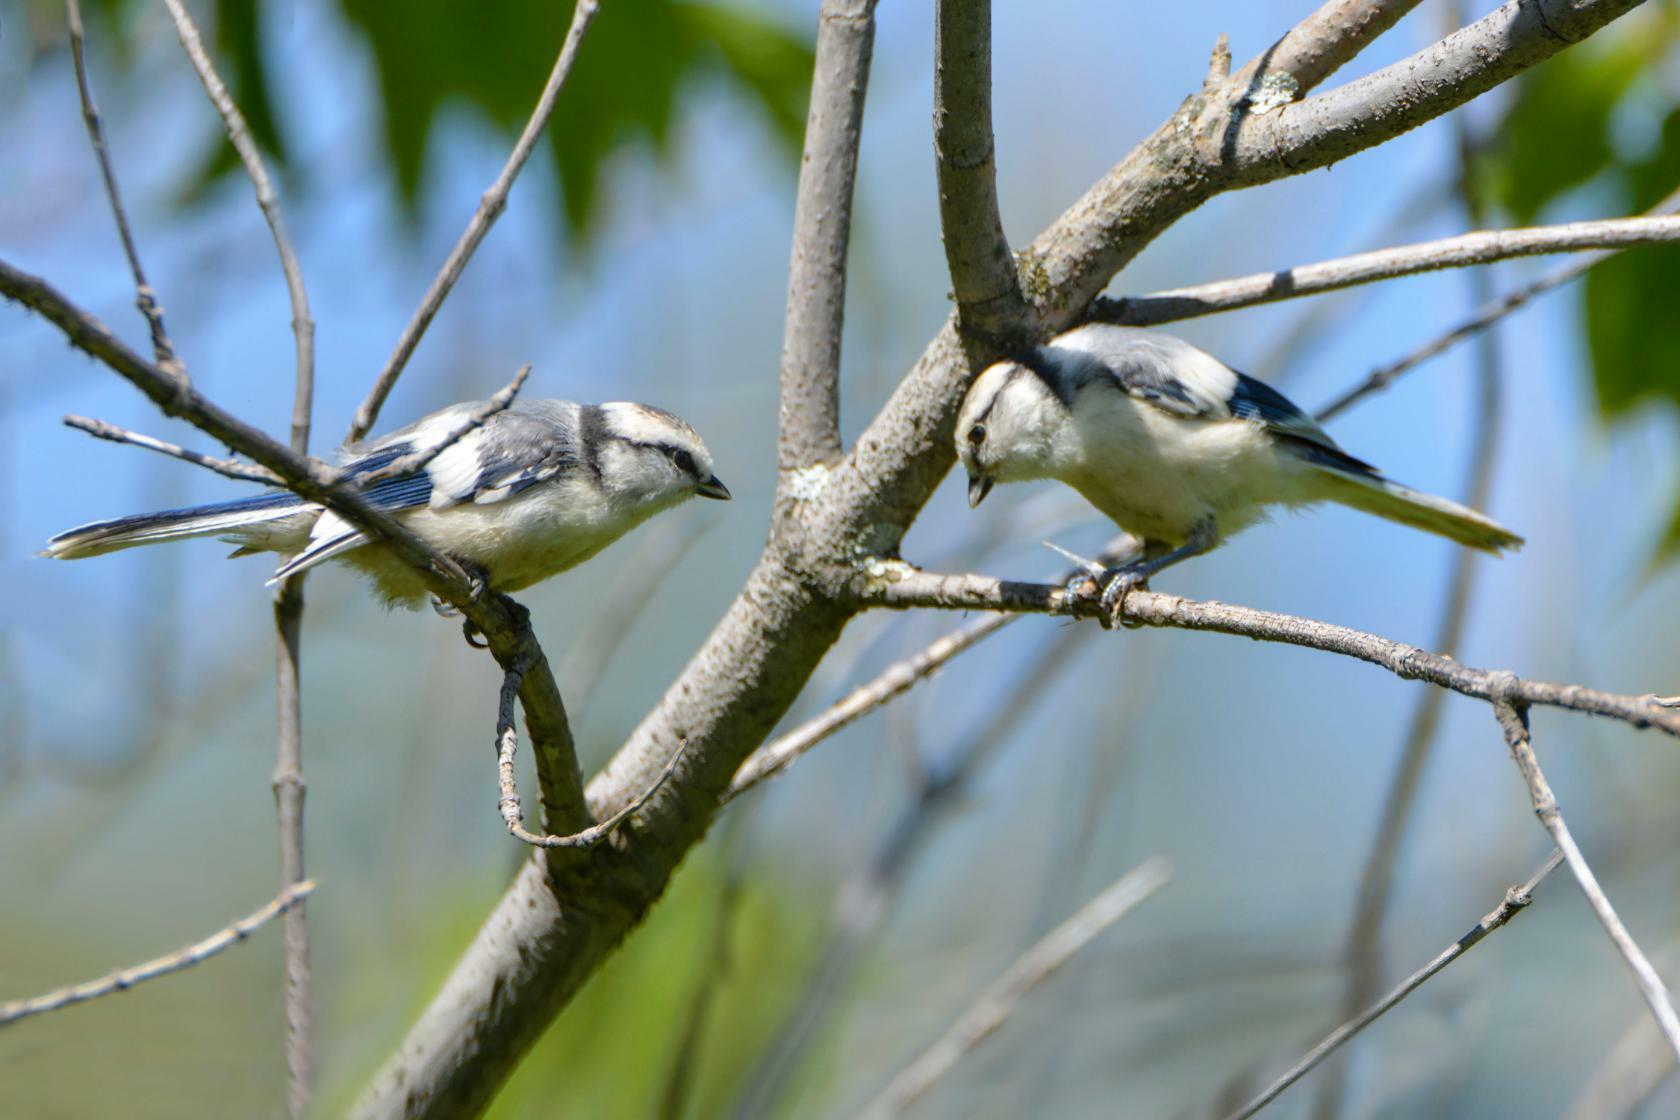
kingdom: Animalia
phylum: Chordata
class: Aves
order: Passeriformes
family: Paridae
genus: Cyanistes
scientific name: Cyanistes cyanus
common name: Azure tit
